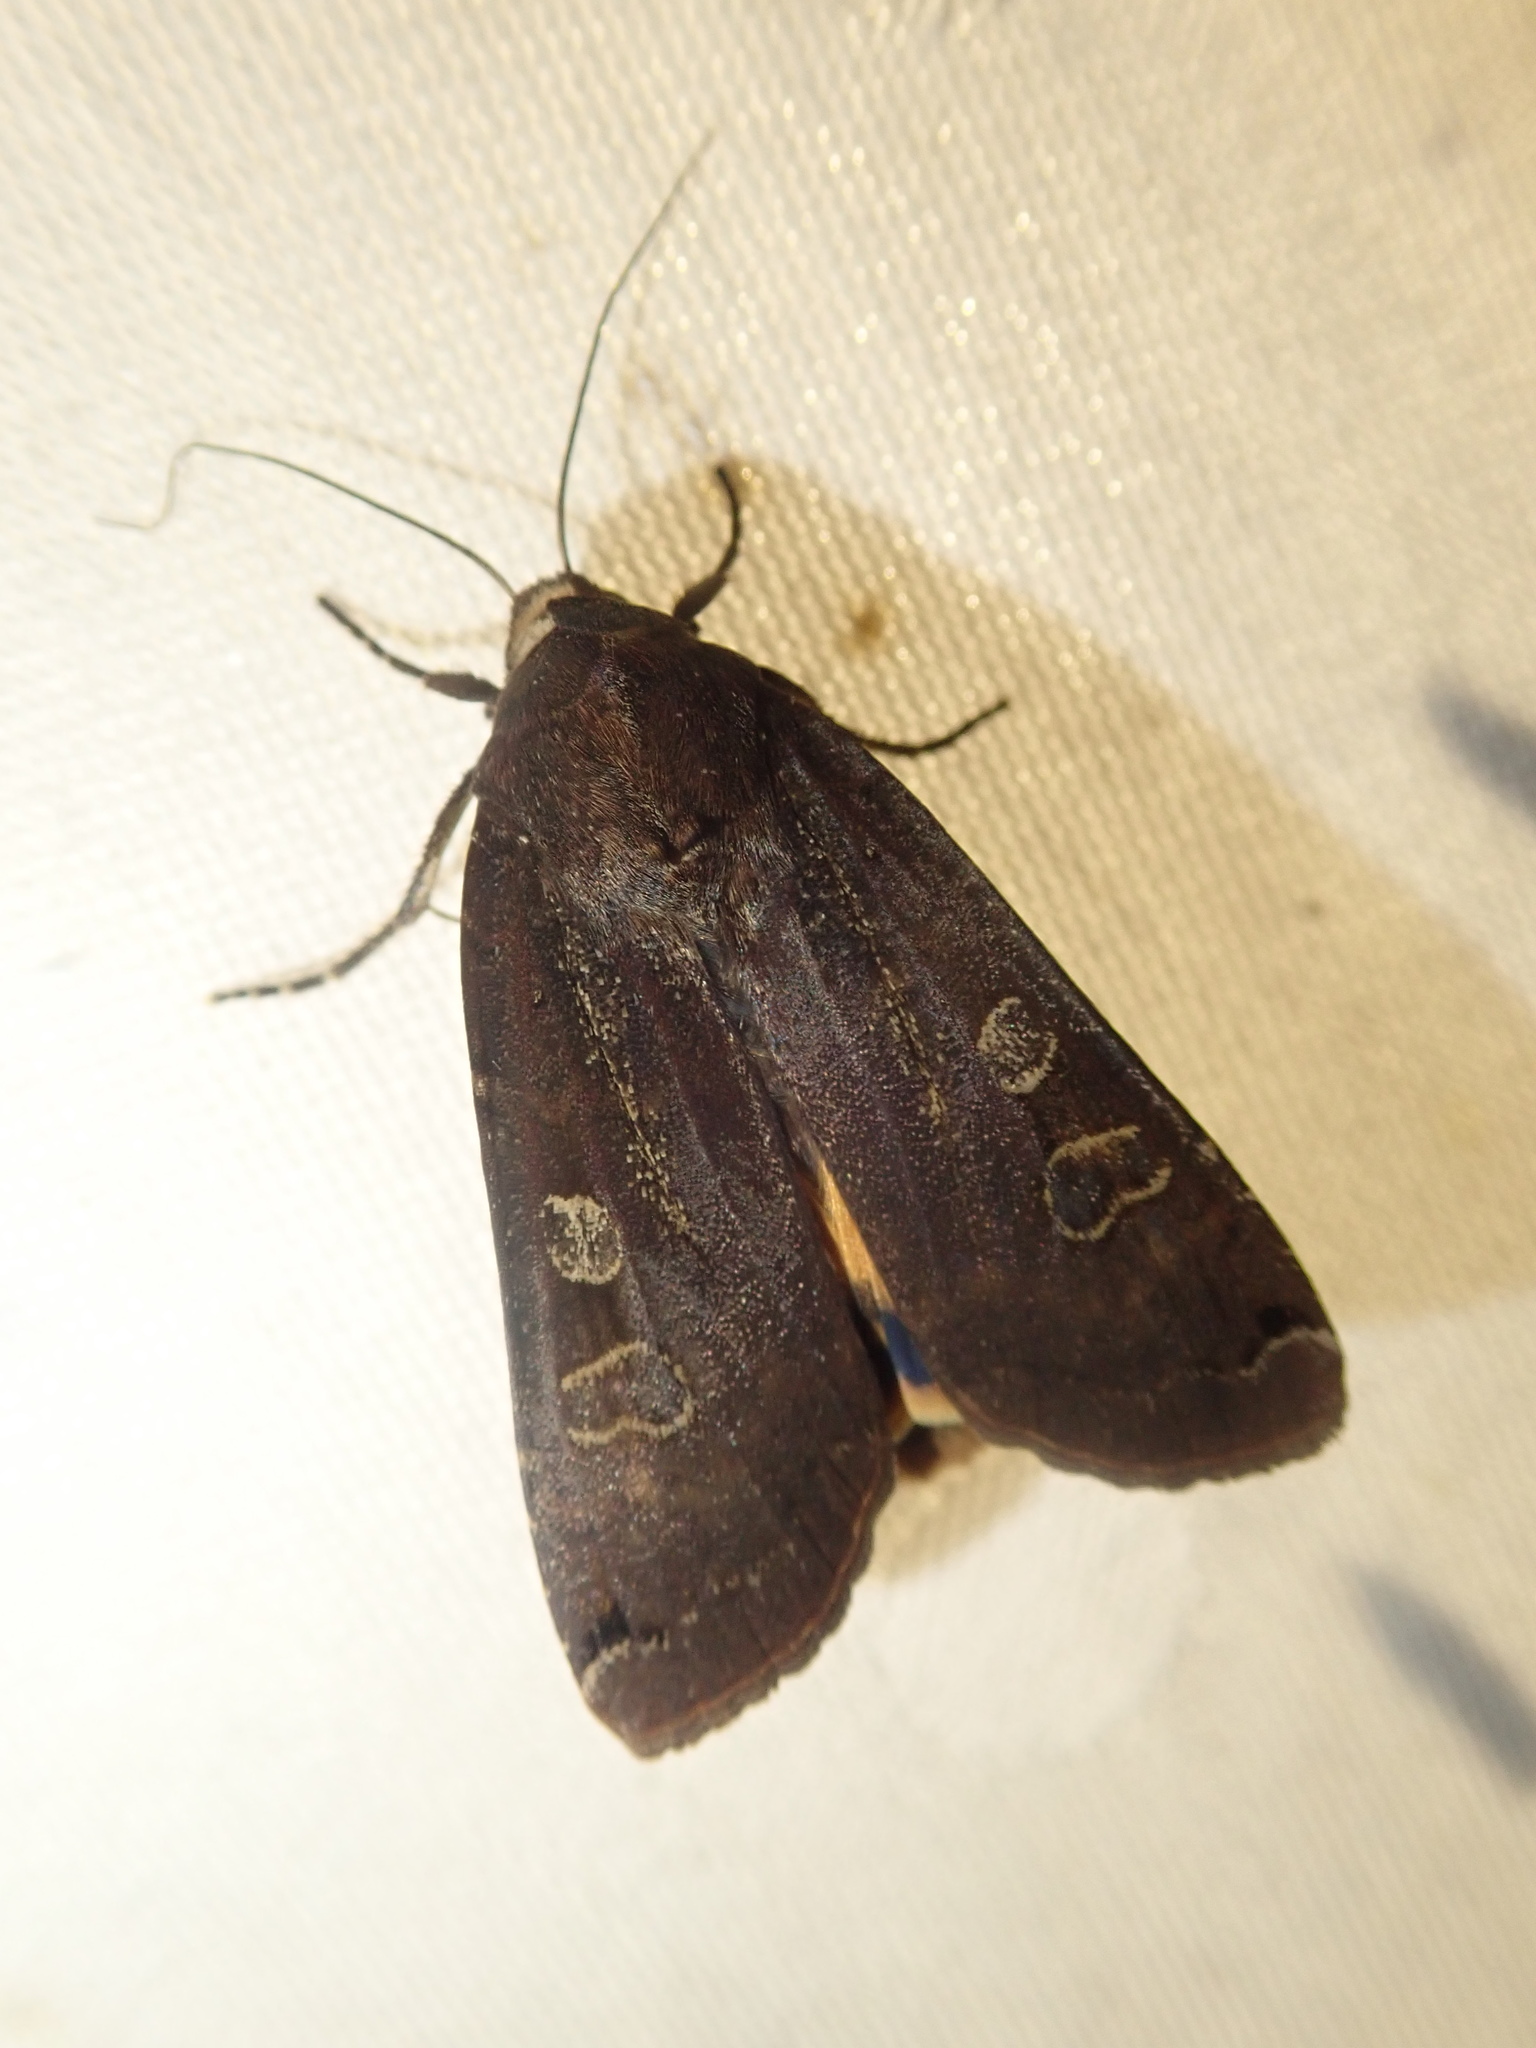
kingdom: Animalia
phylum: Arthropoda
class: Insecta
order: Lepidoptera
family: Noctuidae
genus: Noctua
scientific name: Noctua pronuba
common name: Large yellow underwing
